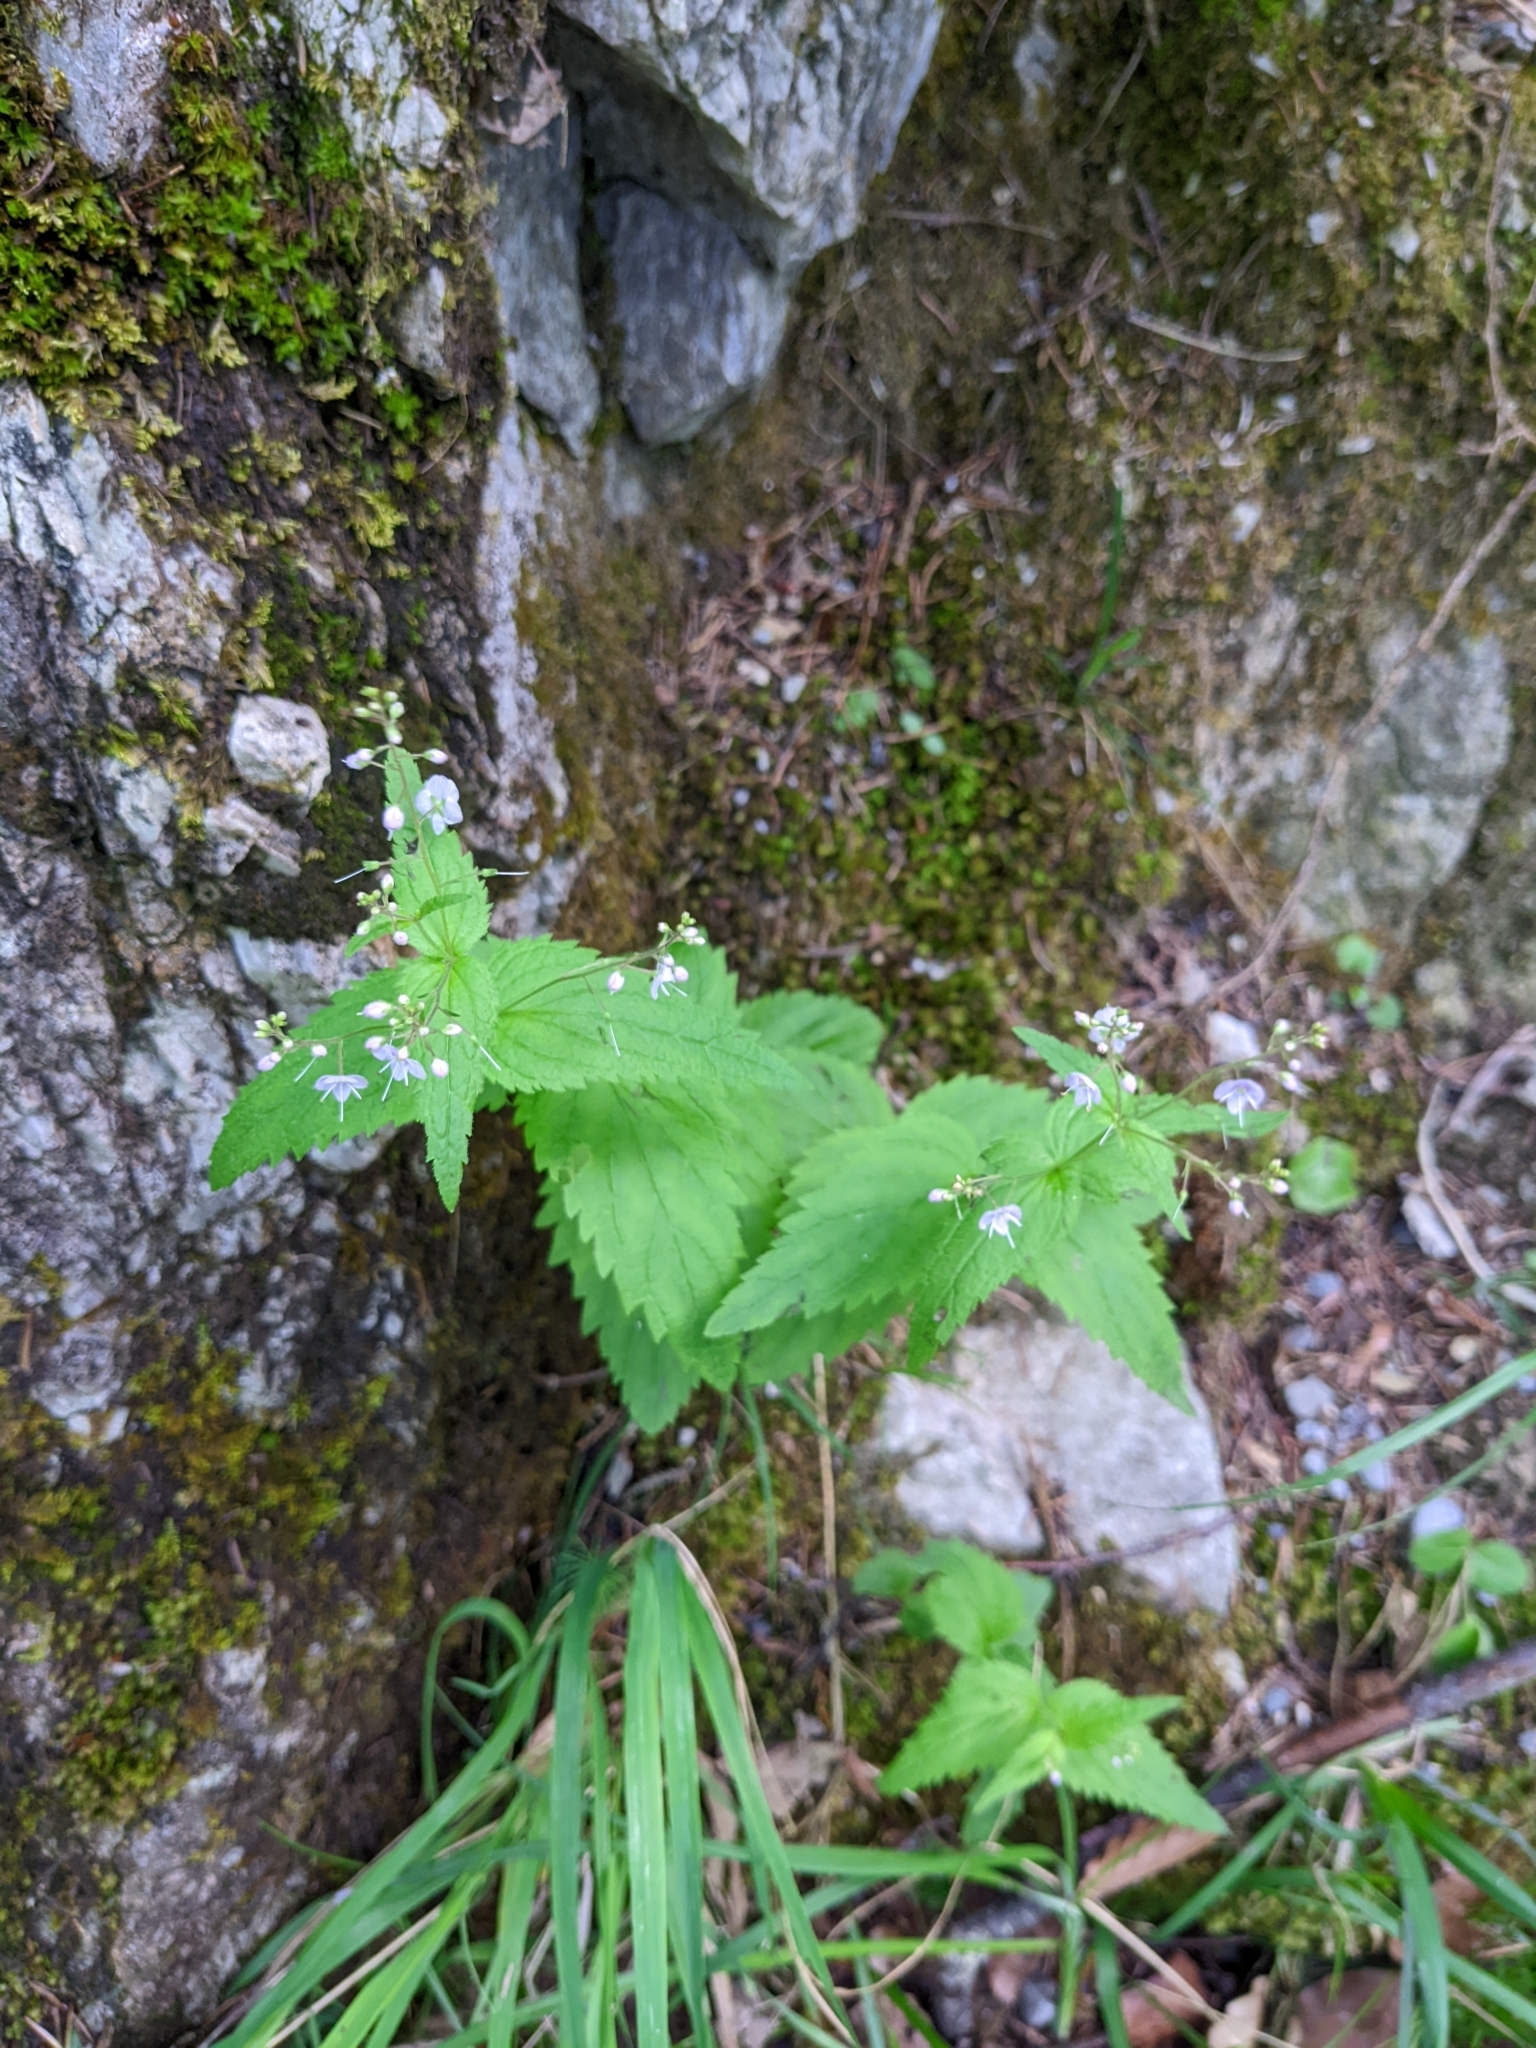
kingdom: Plantae
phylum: Tracheophyta
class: Magnoliopsida
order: Lamiales
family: Plantaginaceae
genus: Veronica
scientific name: Veronica urticifolia
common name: Nettle-leaf speedwell
